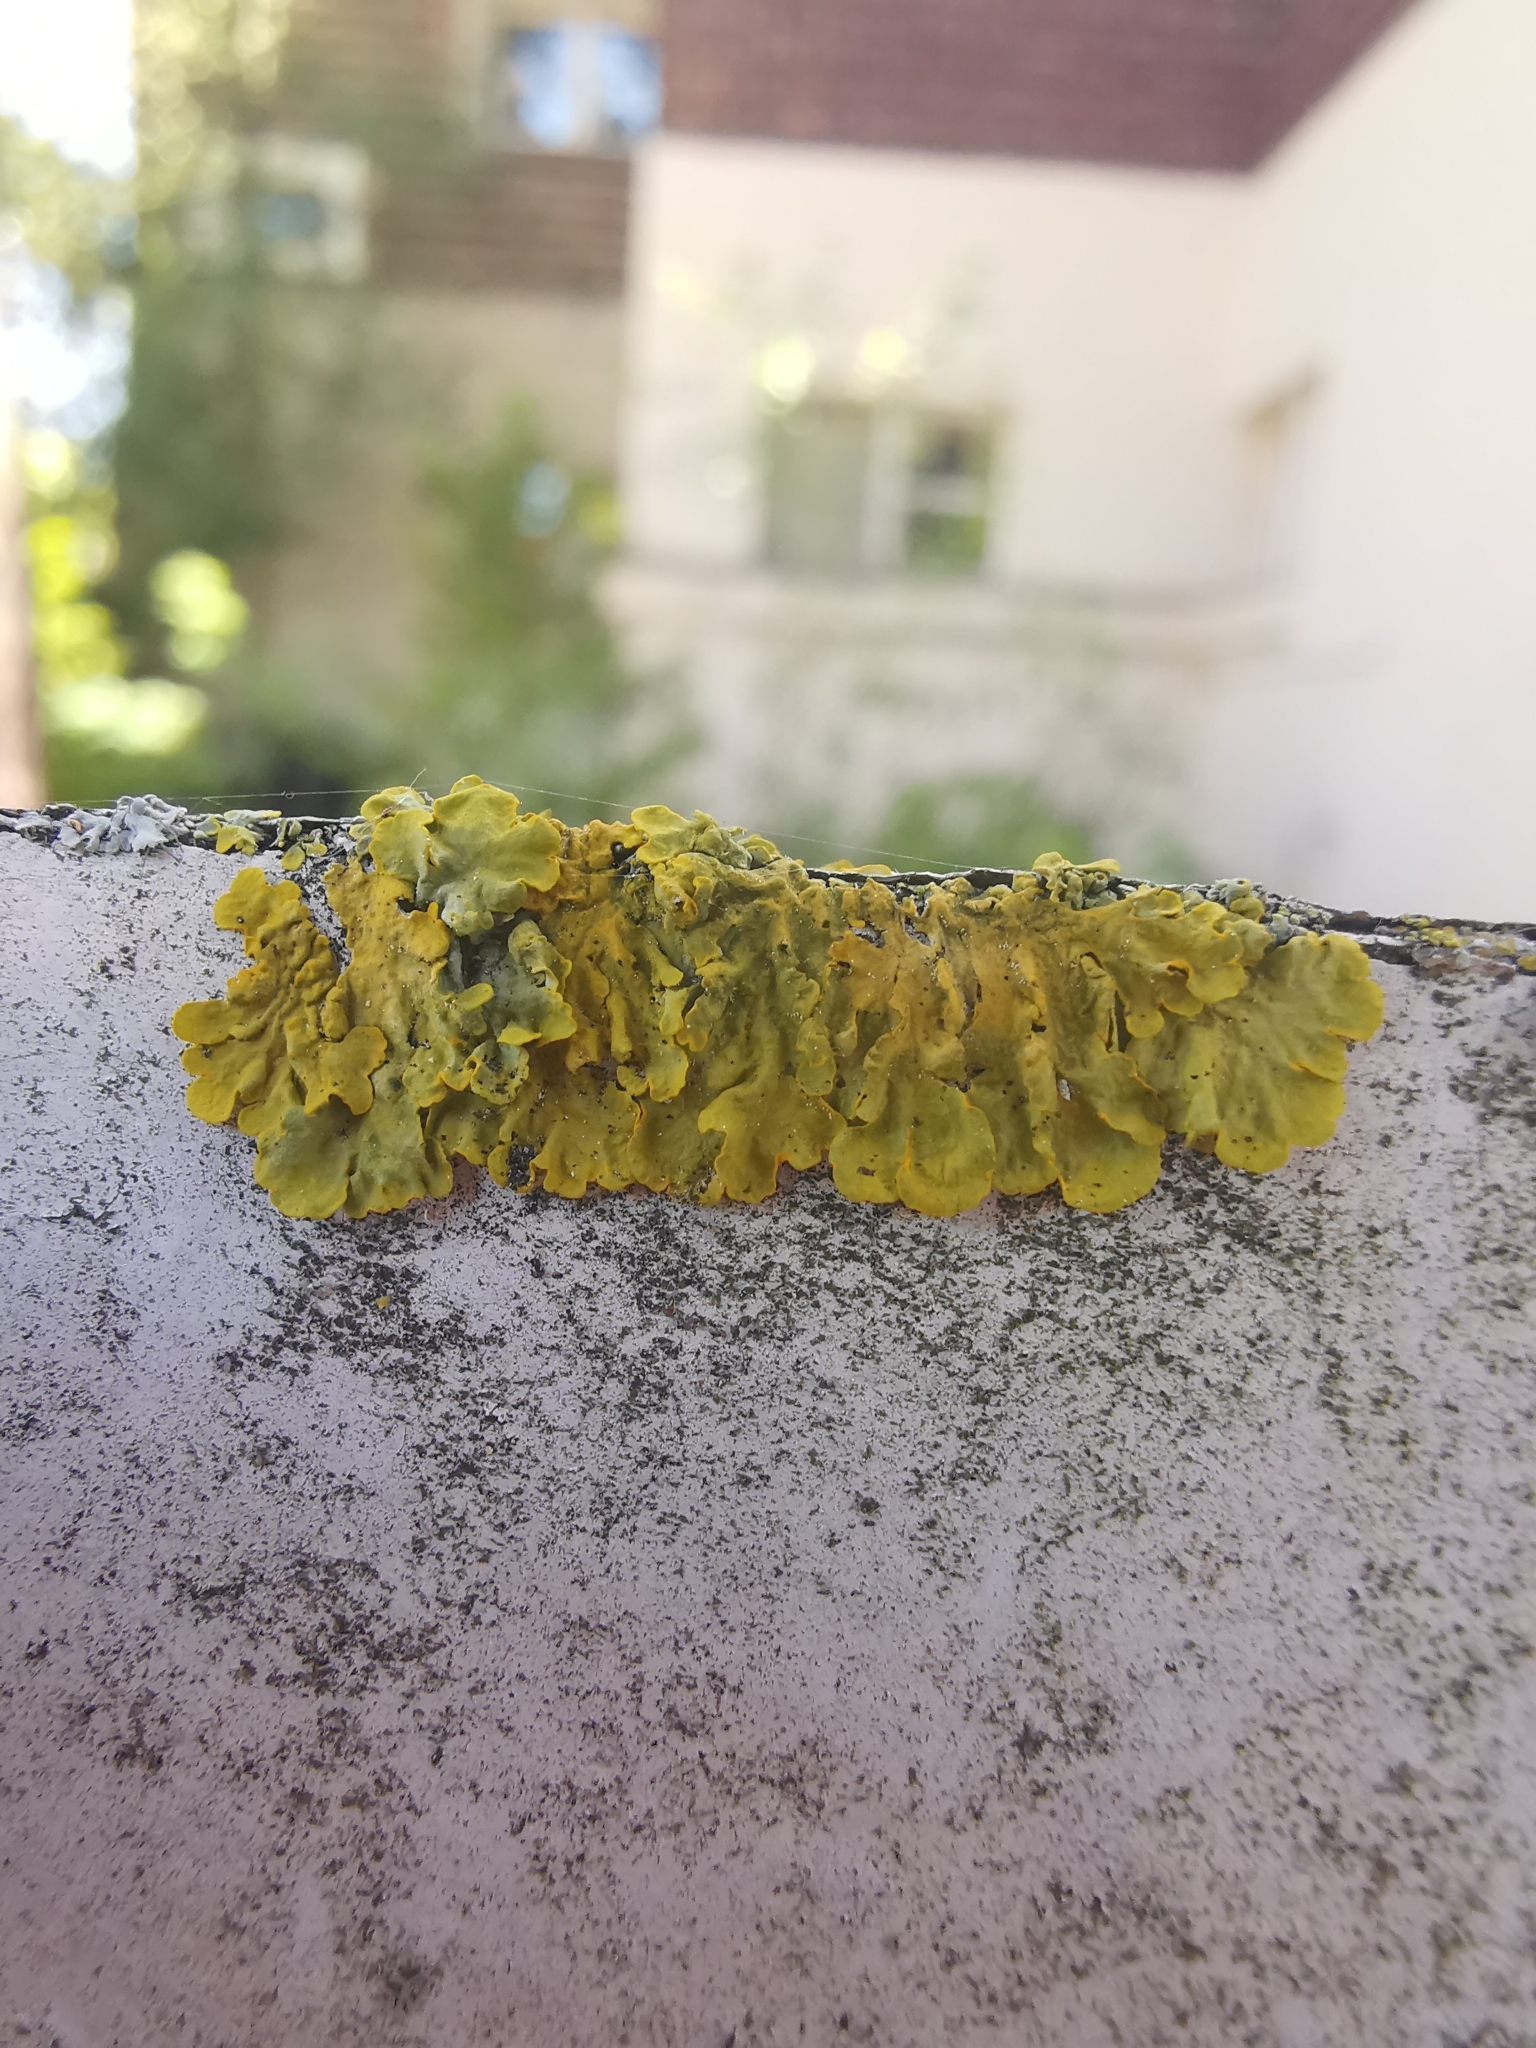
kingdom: Fungi
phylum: Ascomycota
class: Lecanoromycetes
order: Teloschistales
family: Teloschistaceae
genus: Xanthoria
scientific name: Xanthoria parietina
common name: Common orange lichen
